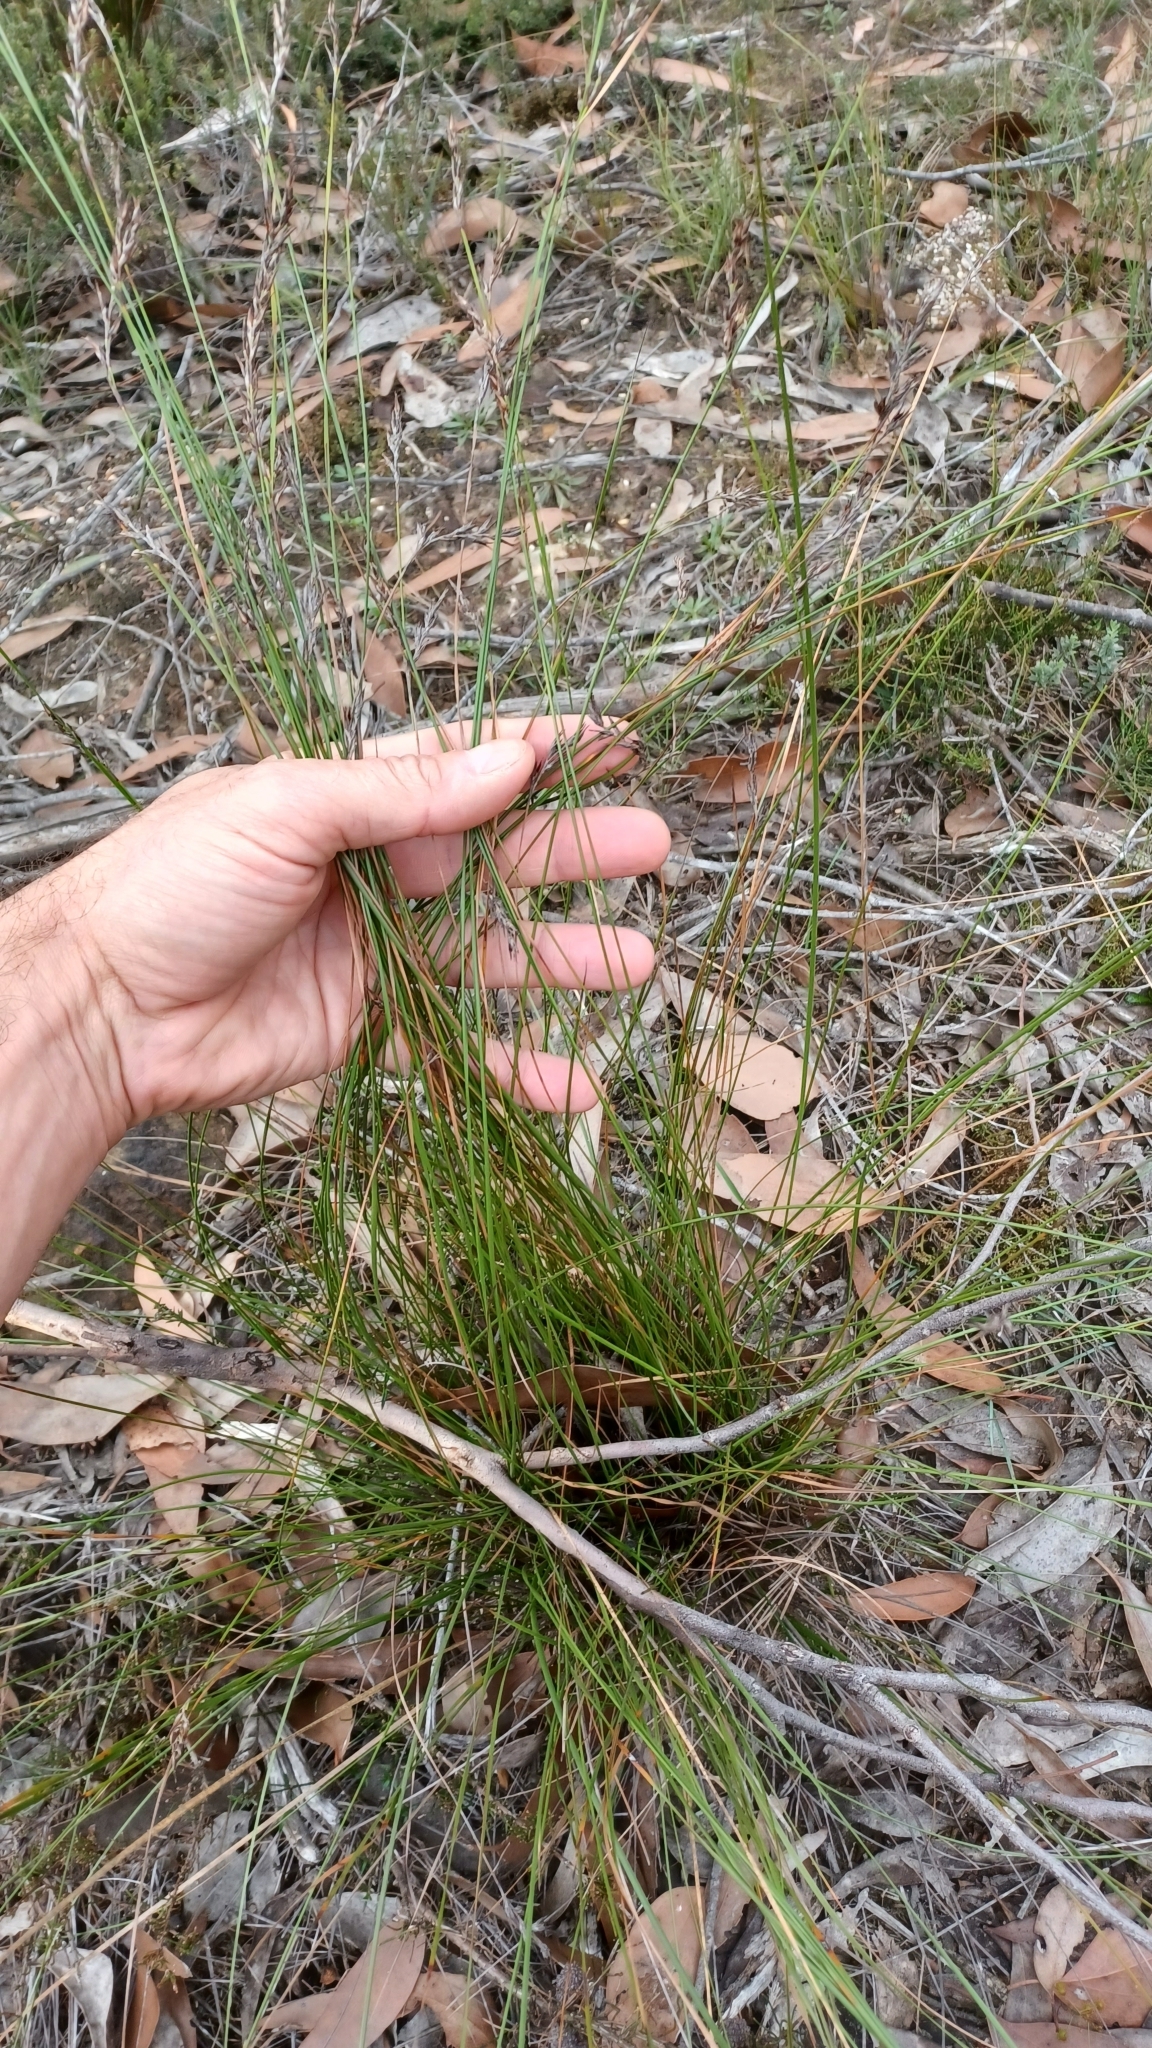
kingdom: Plantae
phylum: Tracheophyta
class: Liliopsida
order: Poales
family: Cyperaceae
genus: Lepidosperma
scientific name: Lepidosperma semiteres
